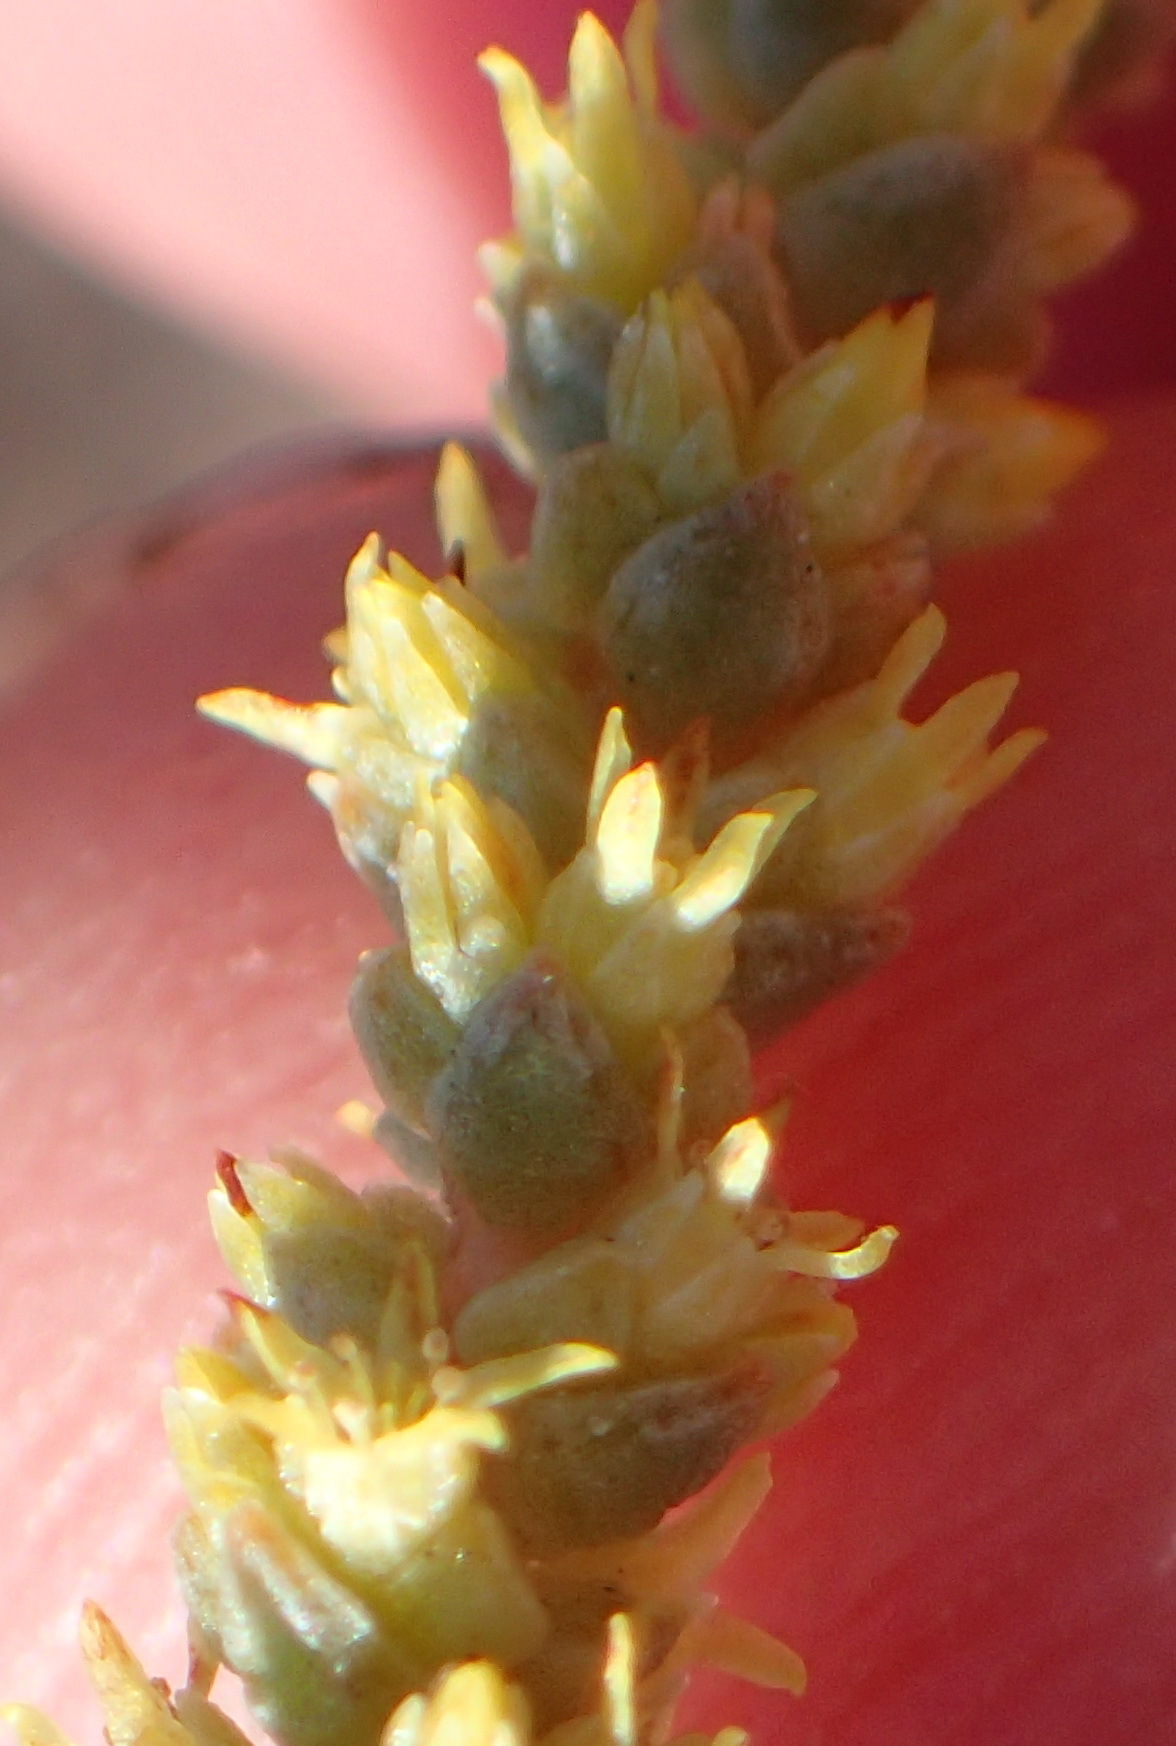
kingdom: Plantae
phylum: Tracheophyta
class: Magnoliopsida
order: Saxifragales
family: Crassulaceae
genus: Crassula
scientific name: Crassula muscosa
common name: Toy-cypress
